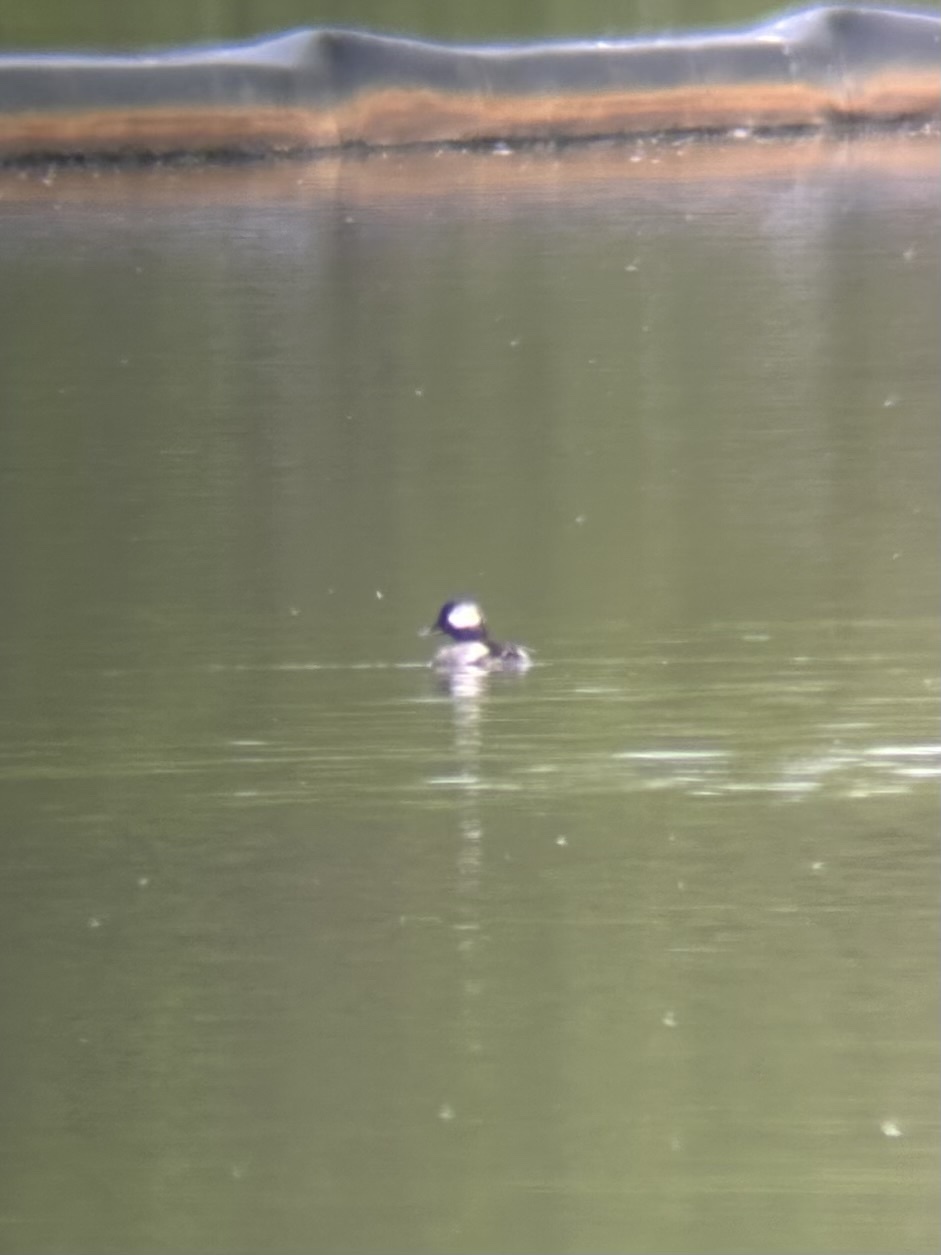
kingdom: Animalia
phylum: Chordata
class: Aves
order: Anseriformes
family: Anatidae
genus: Bucephala
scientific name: Bucephala albeola
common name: Bufflehead
